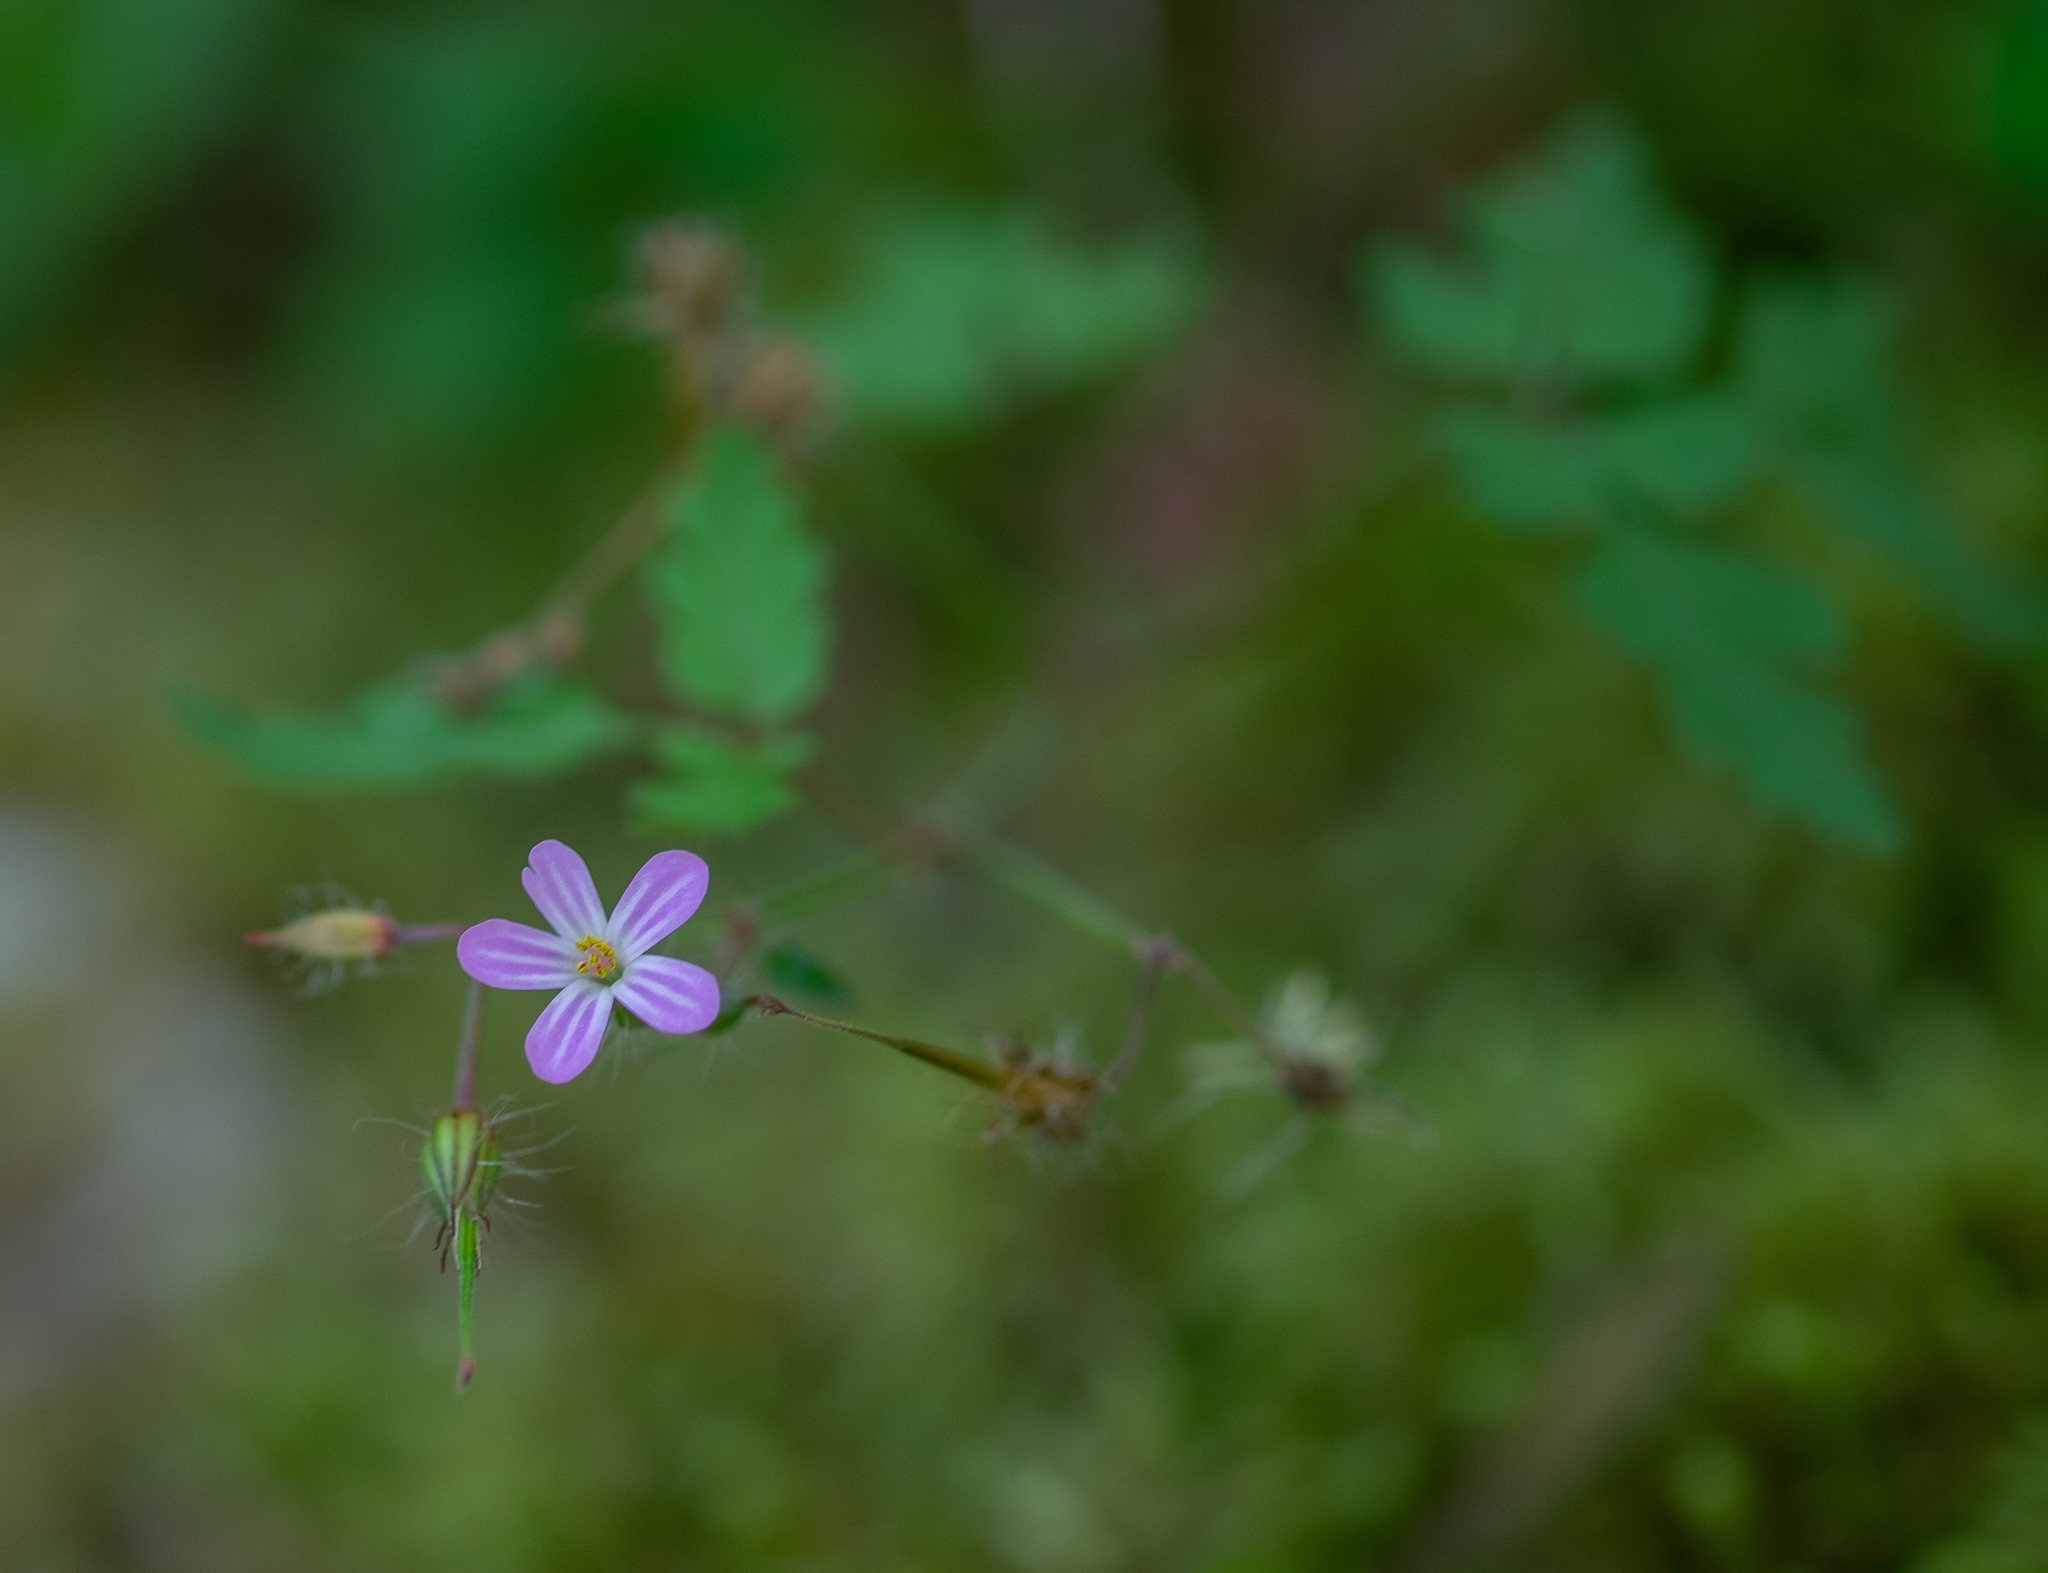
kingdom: Plantae
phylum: Tracheophyta
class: Magnoliopsida
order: Geraniales
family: Geraniaceae
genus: Geranium
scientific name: Geranium robertianum
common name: Herb-robert
